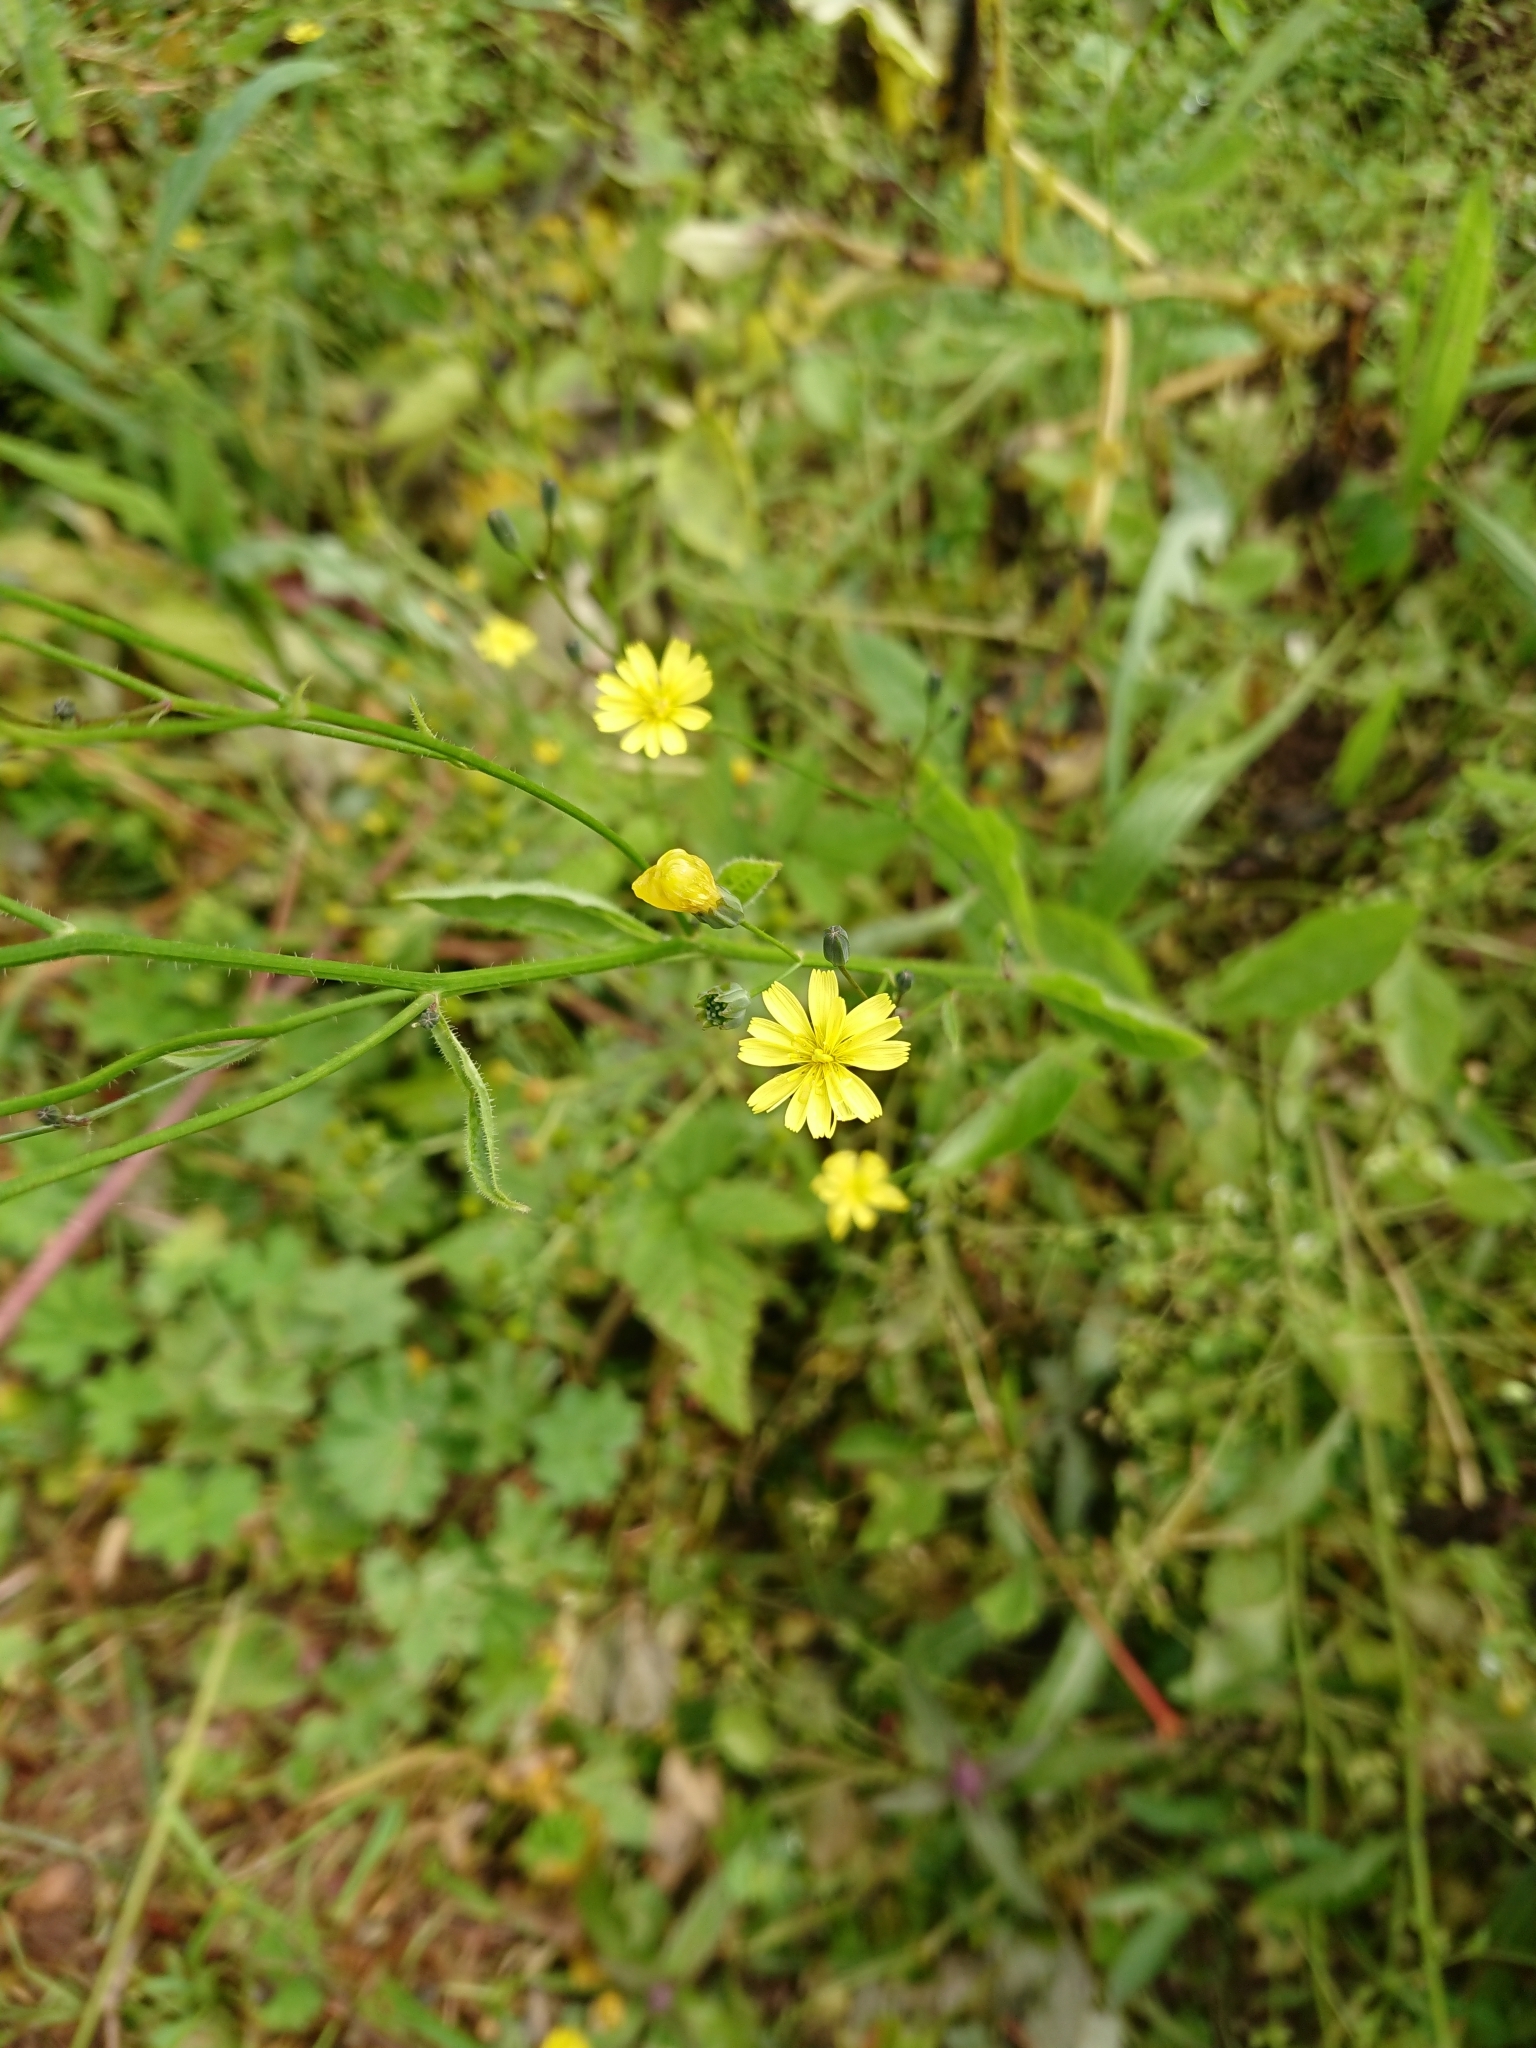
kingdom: Plantae
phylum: Tracheophyta
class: Magnoliopsida
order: Asterales
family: Asteraceae
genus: Lapsana
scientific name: Lapsana communis
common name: Nipplewort
